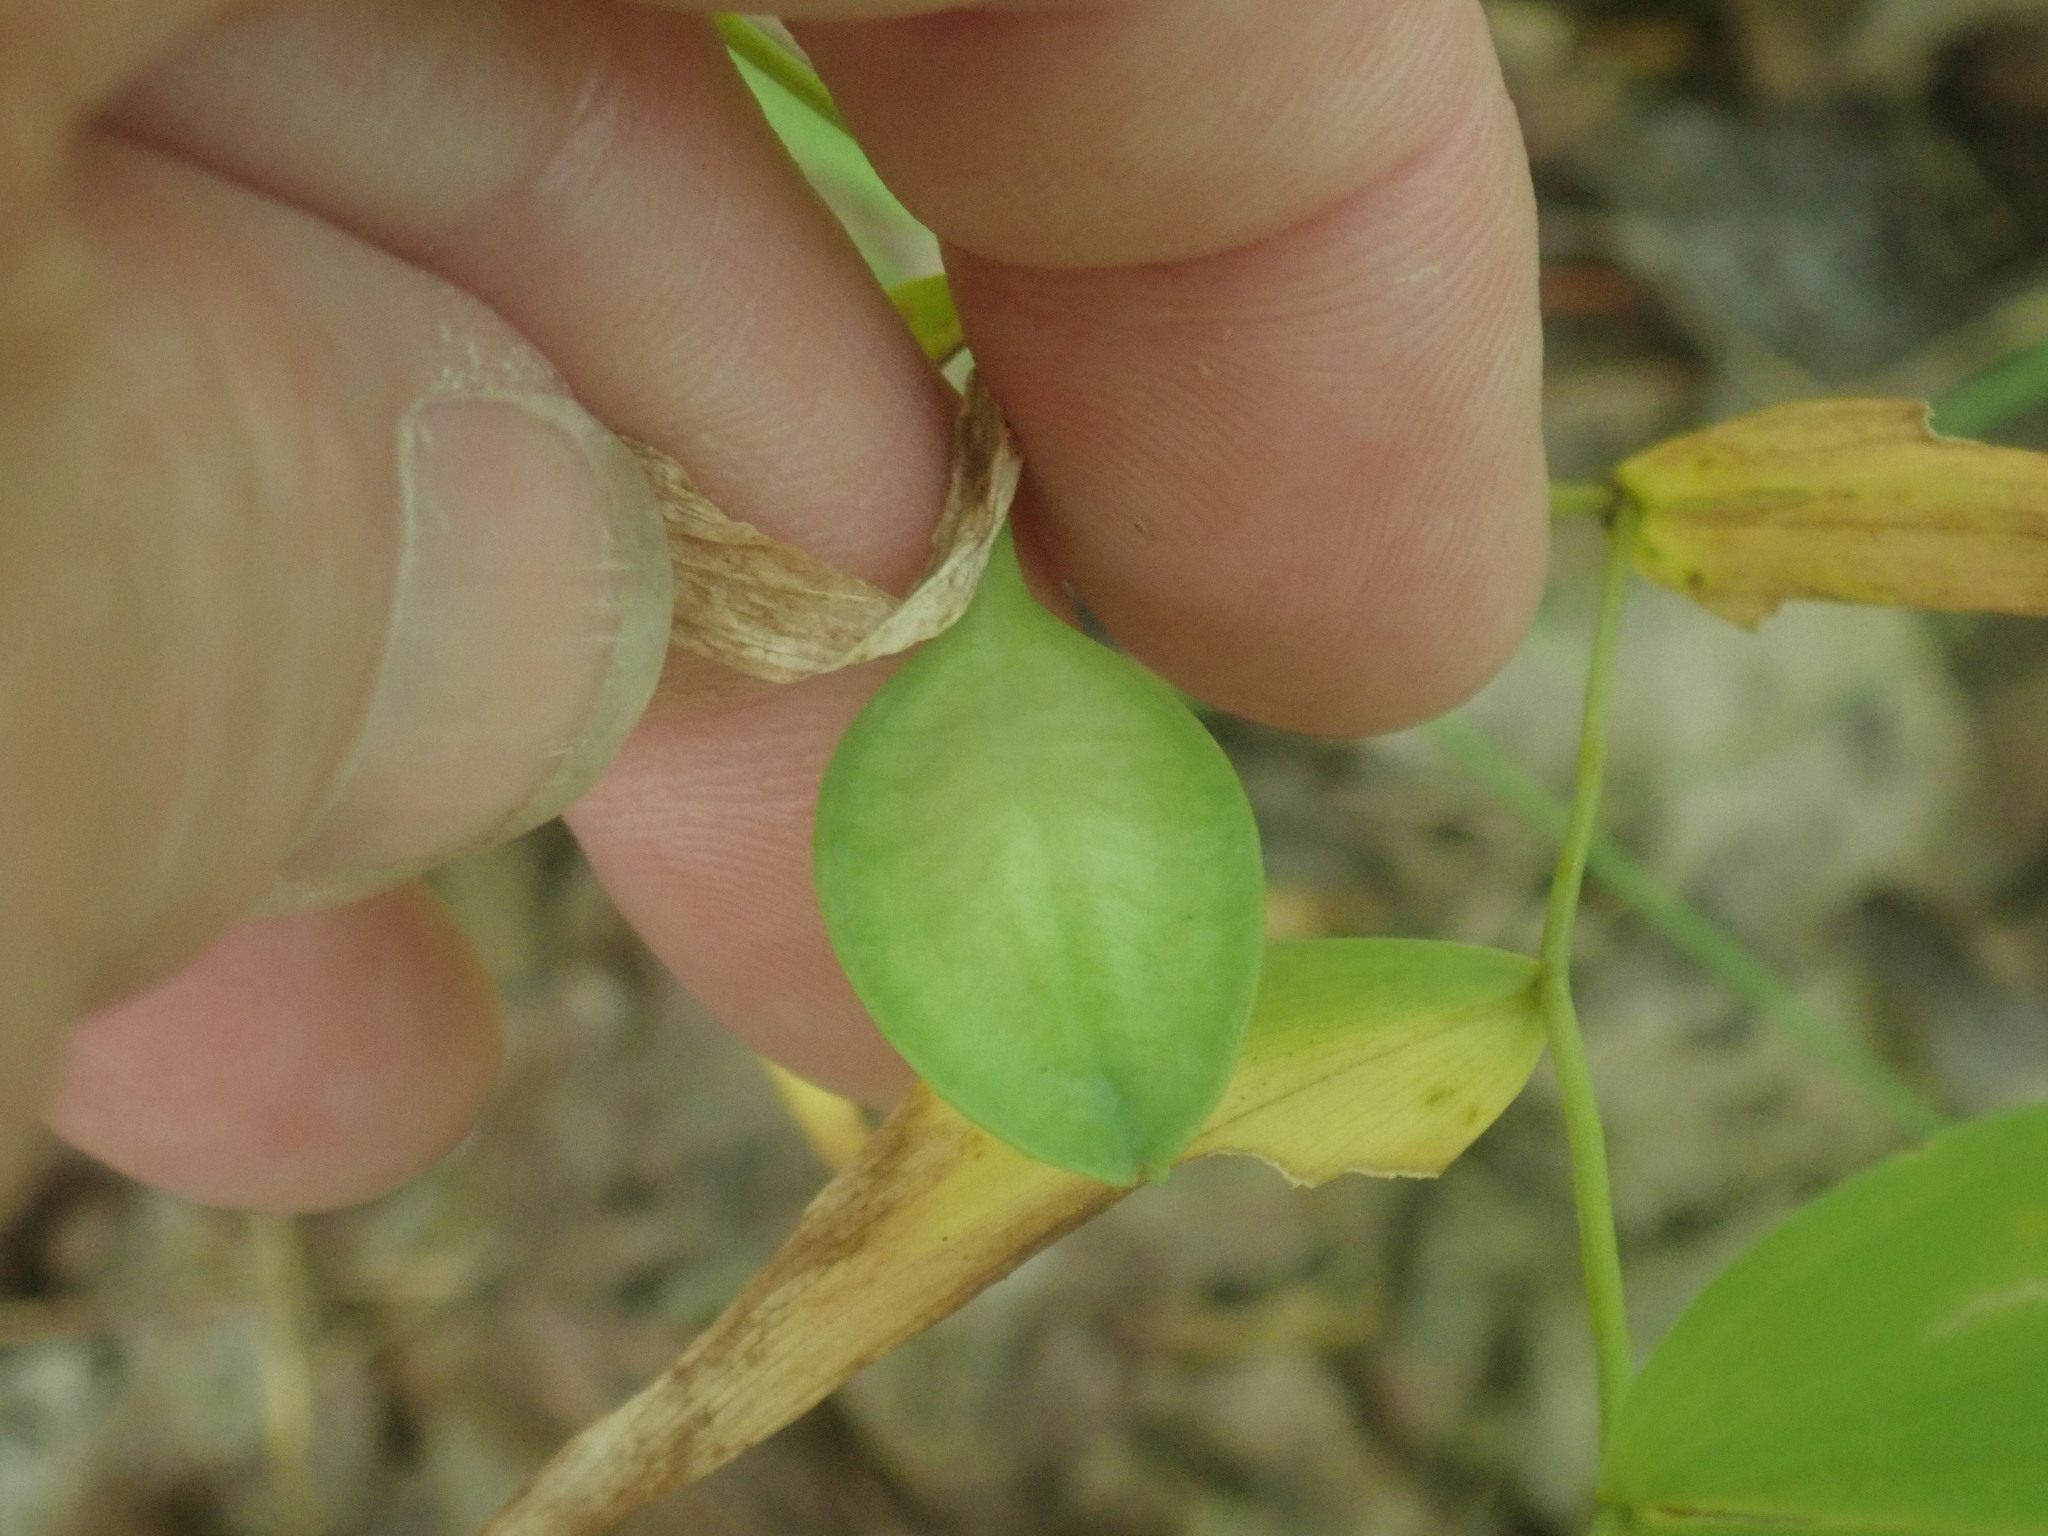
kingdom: Plantae
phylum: Tracheophyta
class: Liliopsida
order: Liliales
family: Colchicaceae
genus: Uvularia
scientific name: Uvularia sessilifolia
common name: Straw-lily
